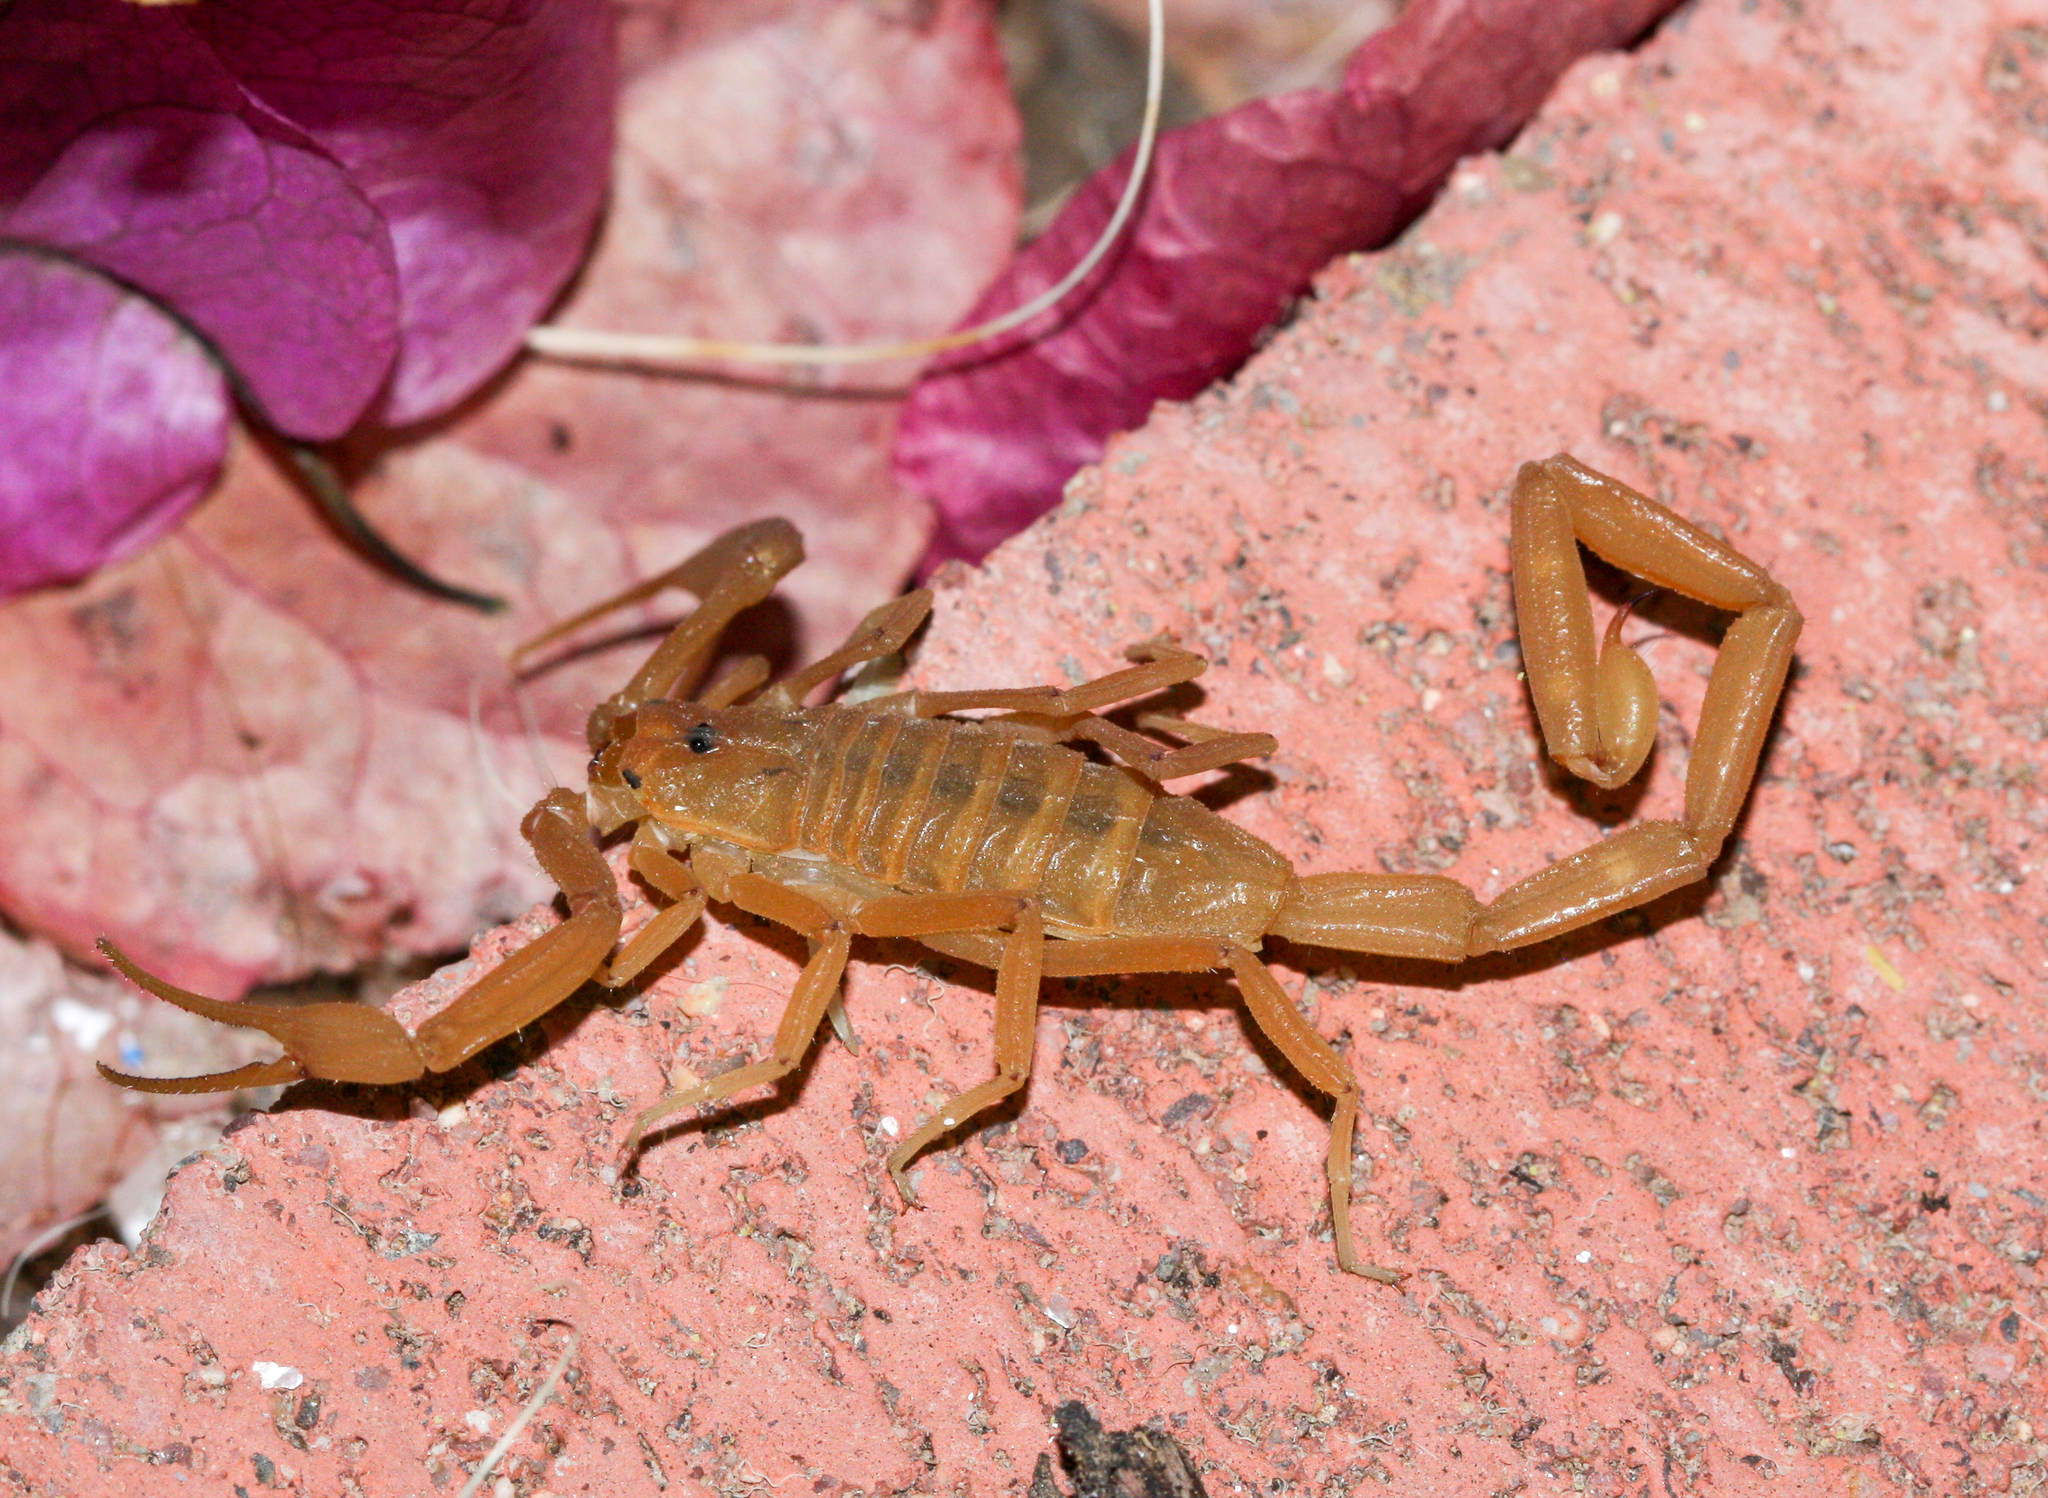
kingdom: Animalia
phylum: Arthropoda
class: Arachnida
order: Scorpiones
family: Buthidae
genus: Centruroides
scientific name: Centruroides sculpturatus
